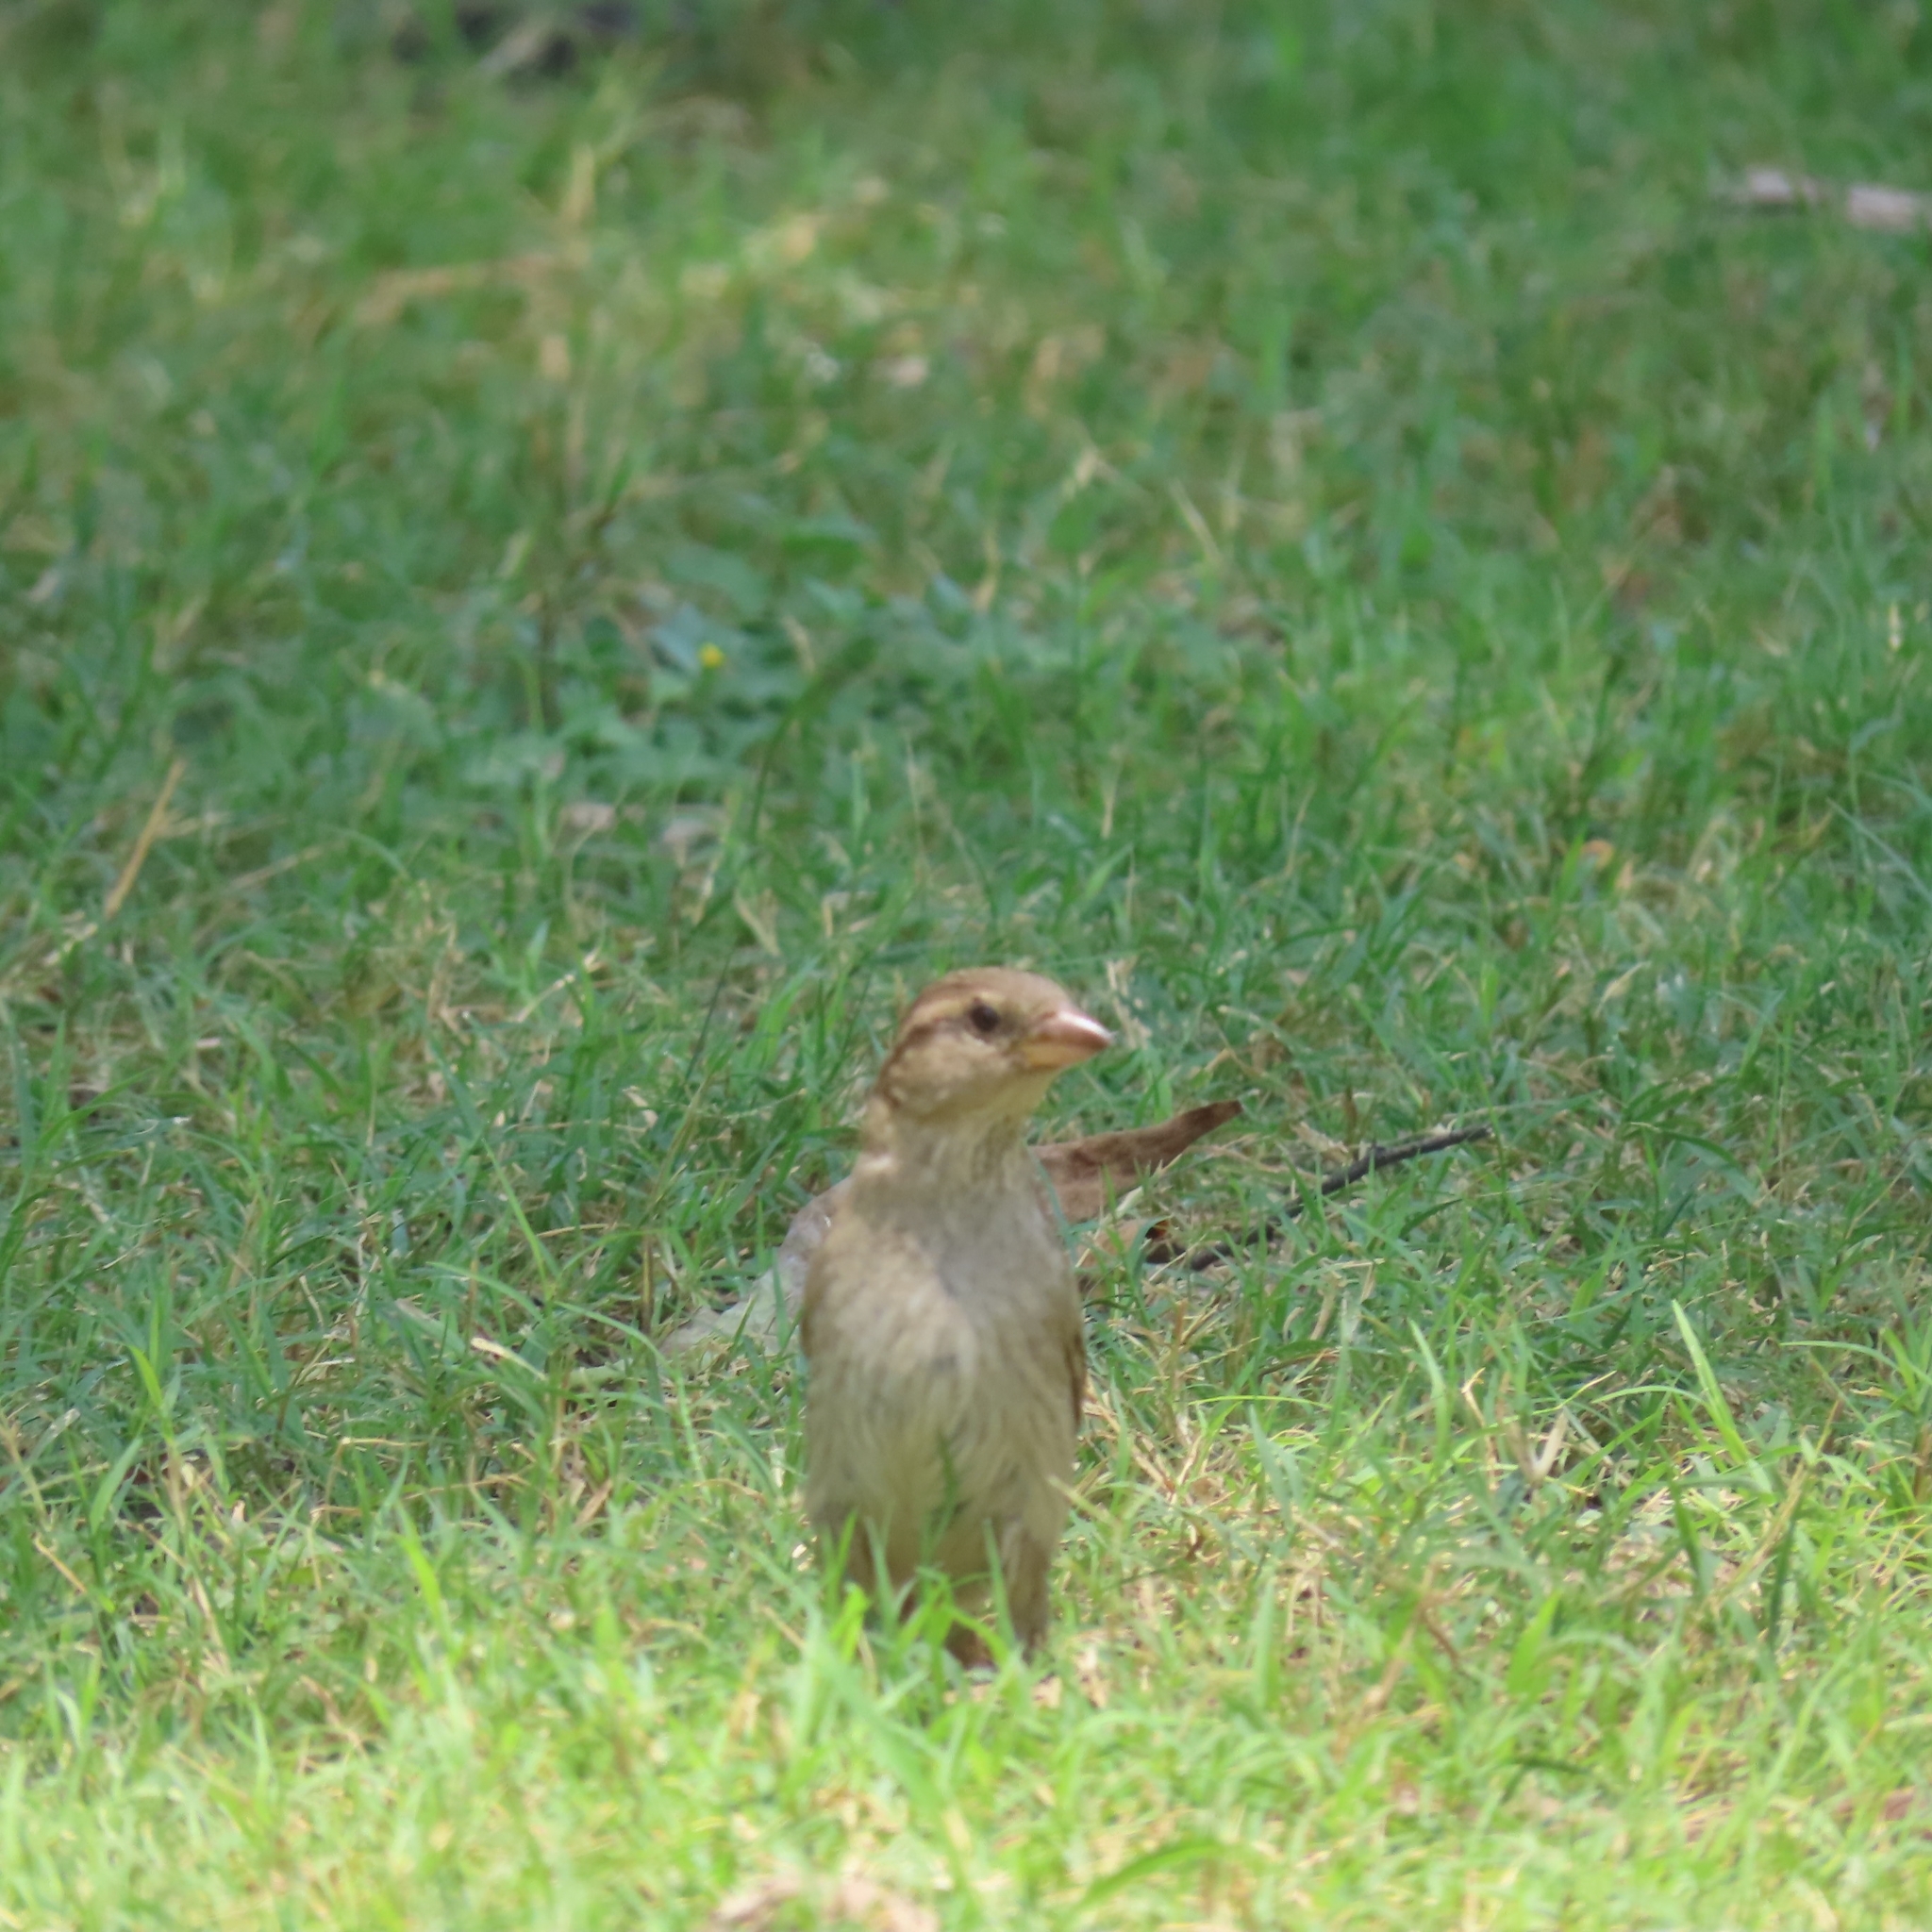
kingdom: Animalia
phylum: Chordata
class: Aves
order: Passeriformes
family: Passeridae
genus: Passer
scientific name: Passer domesticus
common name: House sparrow
